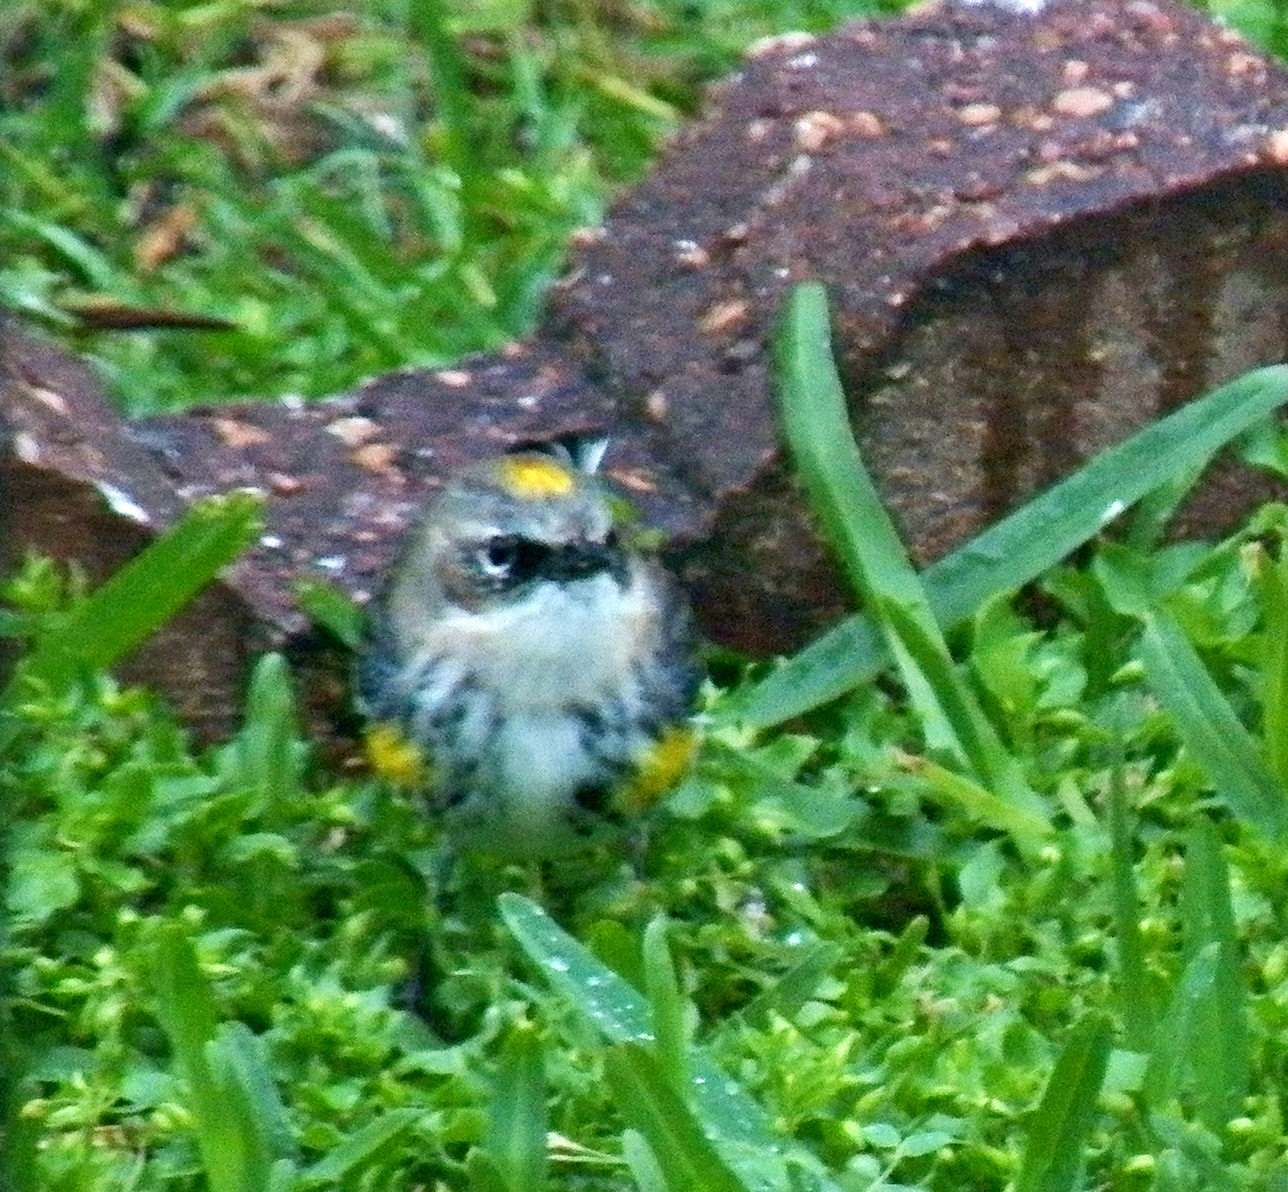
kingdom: Animalia
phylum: Chordata
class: Aves
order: Passeriformes
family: Parulidae
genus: Setophaga
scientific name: Setophaga coronata
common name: Myrtle warbler
